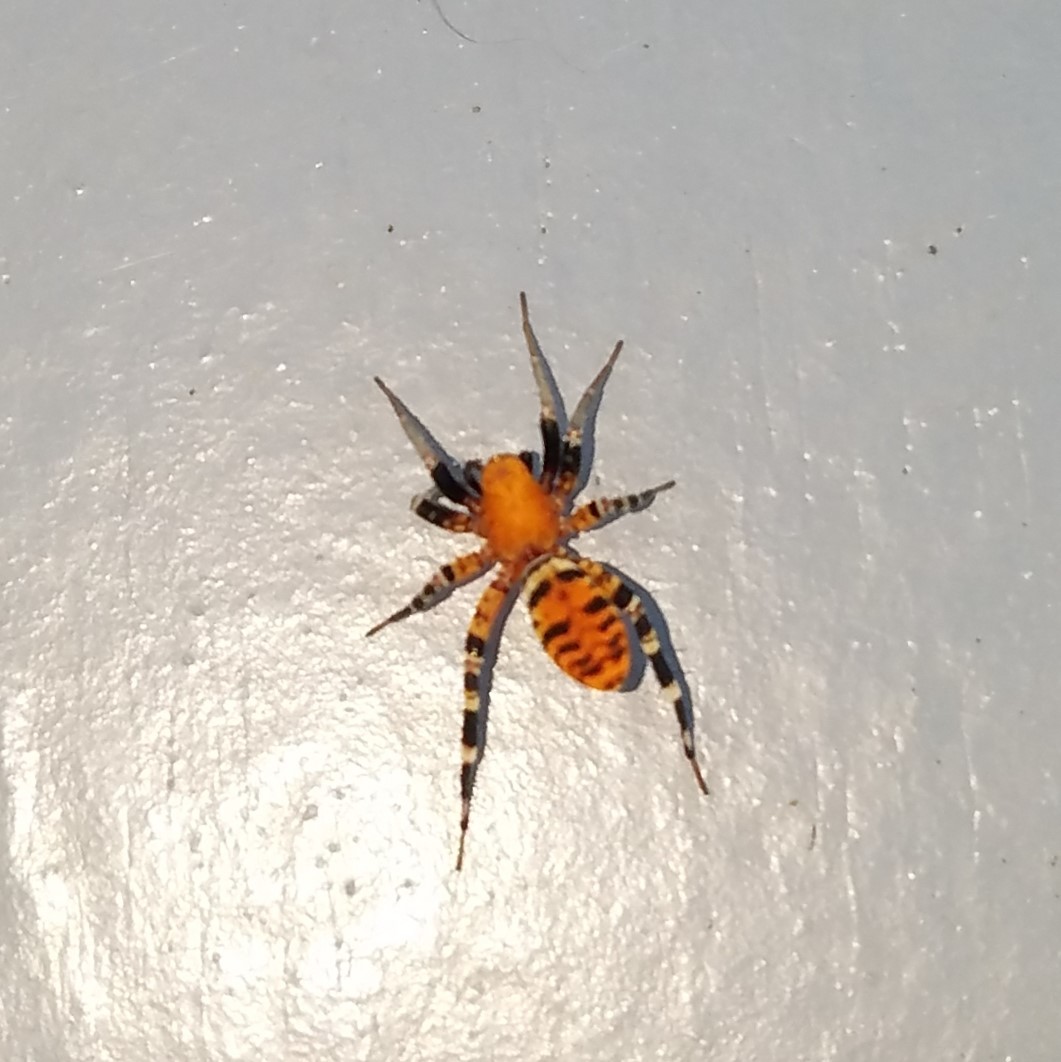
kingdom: Animalia
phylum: Arthropoda
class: Arachnida
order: Araneae
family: Corinnidae
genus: Castianeira
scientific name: Castianeira amoena
